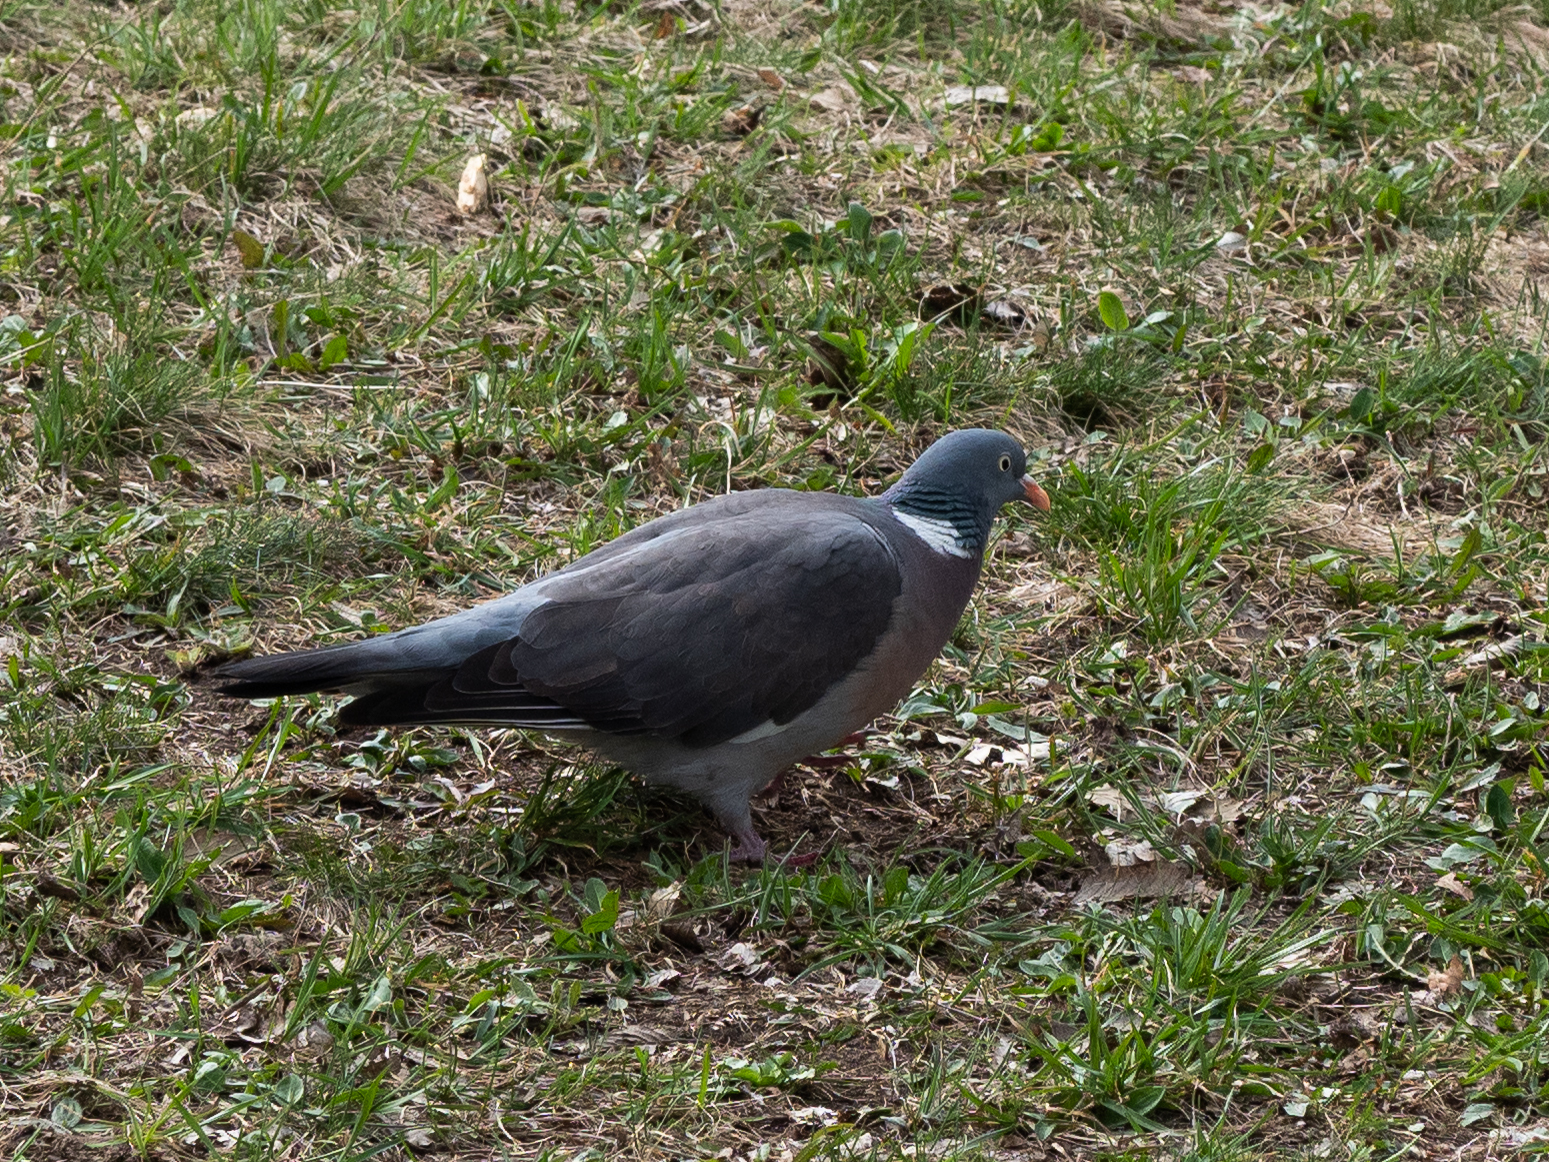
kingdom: Animalia
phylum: Chordata
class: Aves
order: Columbiformes
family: Columbidae
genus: Columba
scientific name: Columba palumbus
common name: Common wood pigeon
